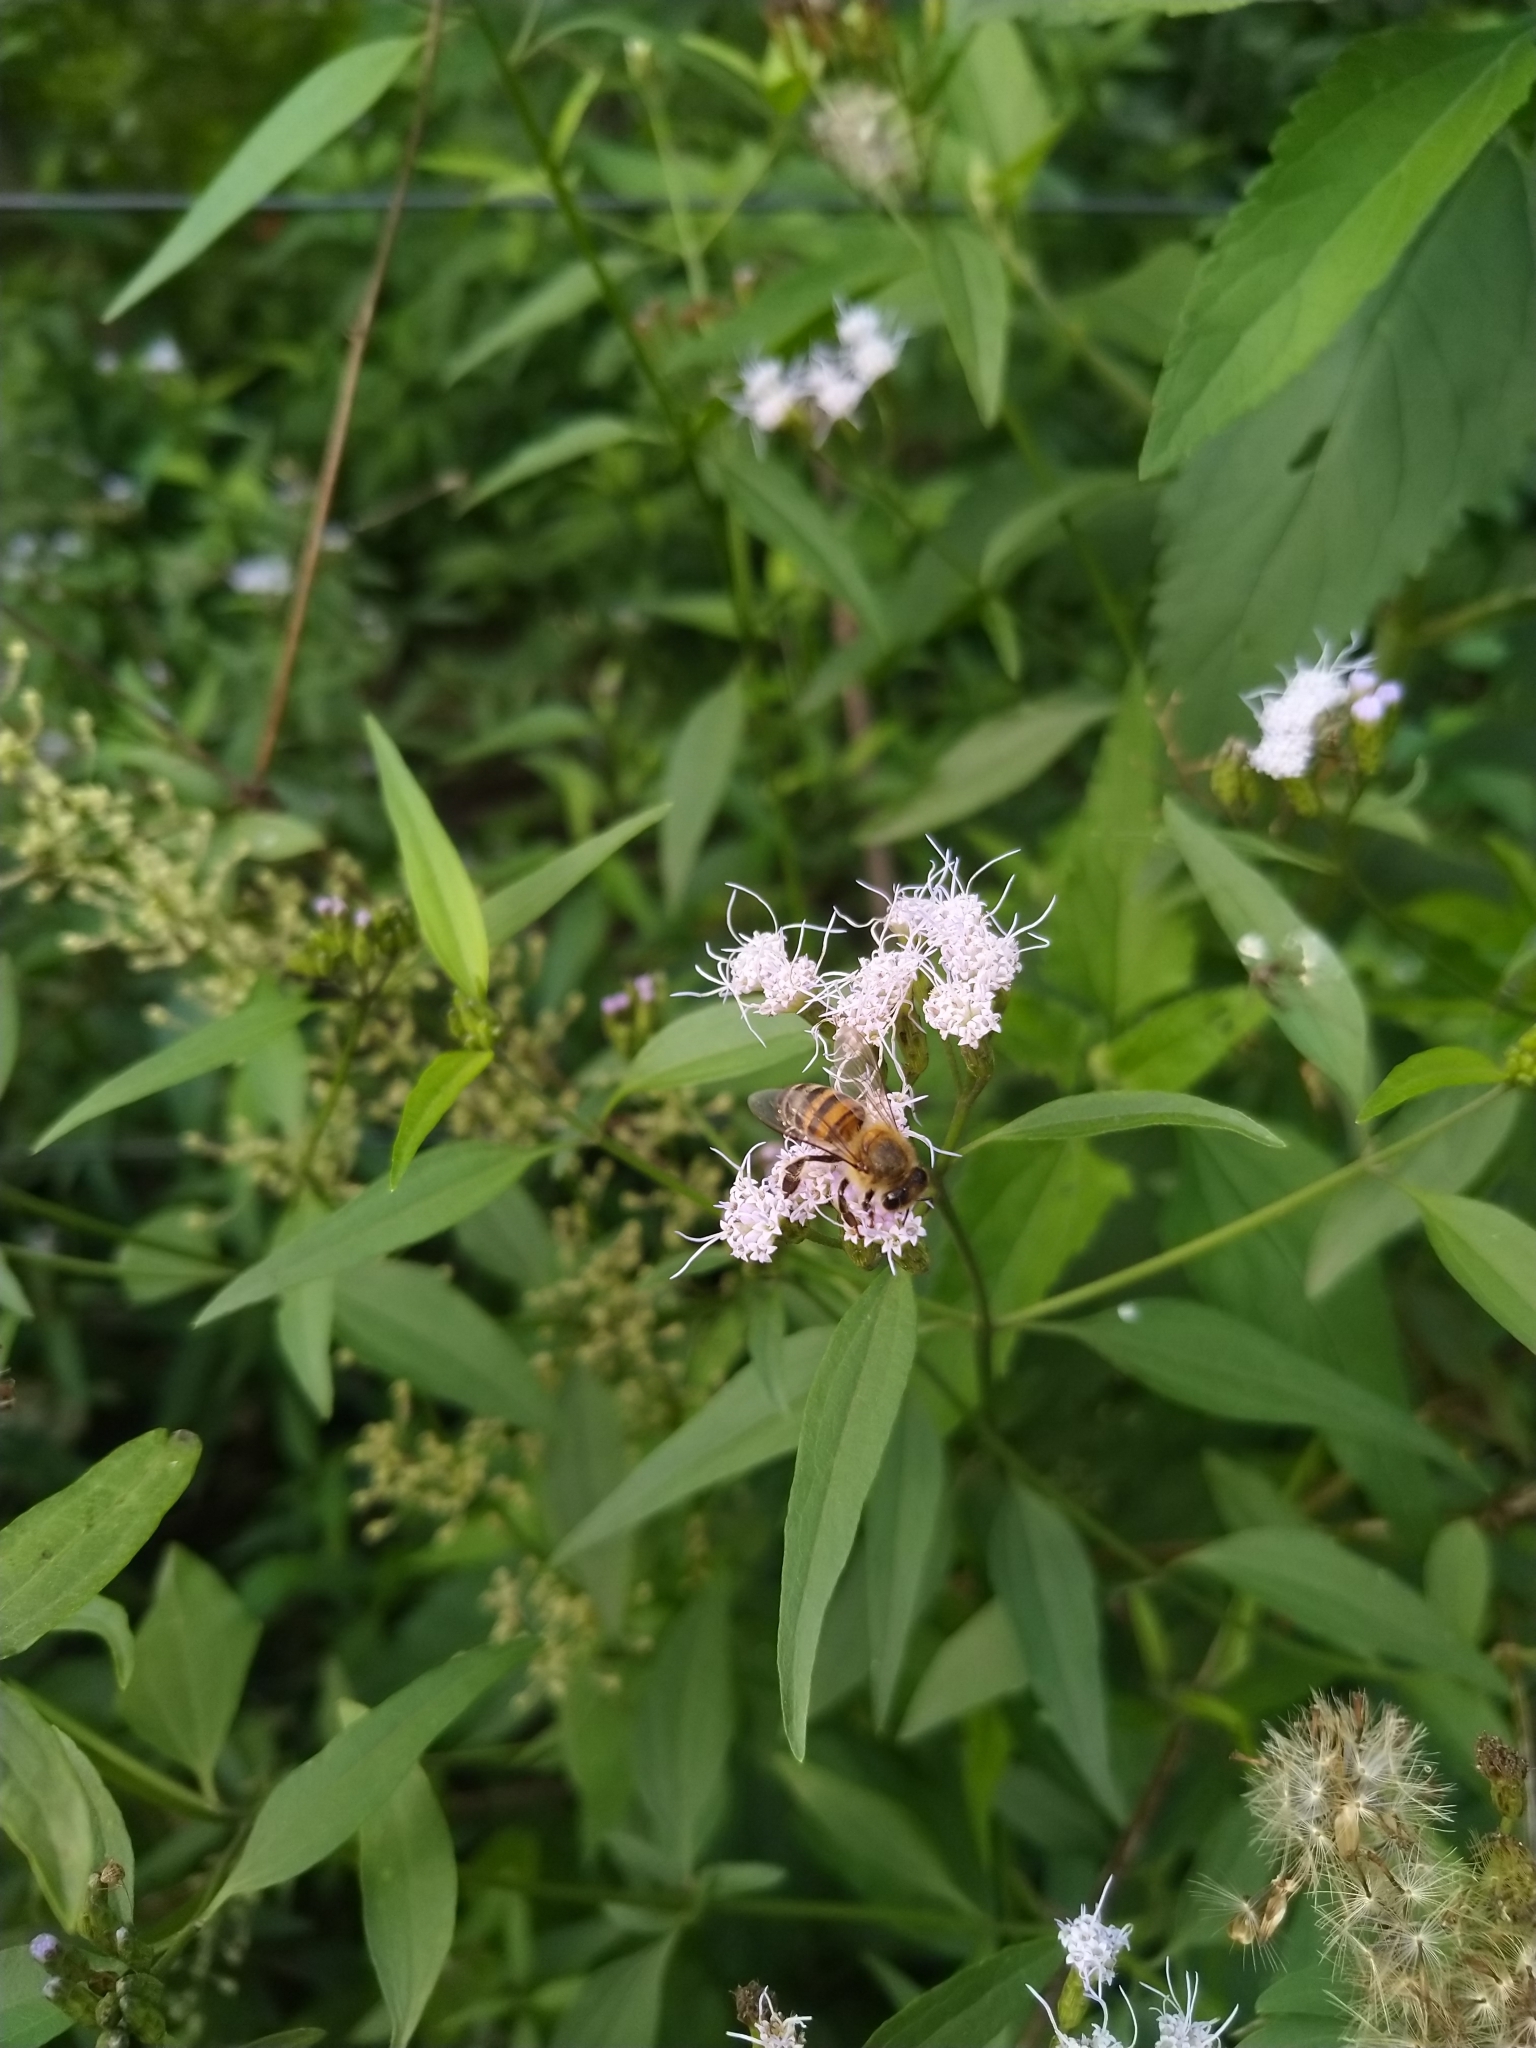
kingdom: Animalia
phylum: Arthropoda
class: Insecta
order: Hymenoptera
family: Apidae
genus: Apis
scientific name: Apis mellifera
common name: Honey bee
